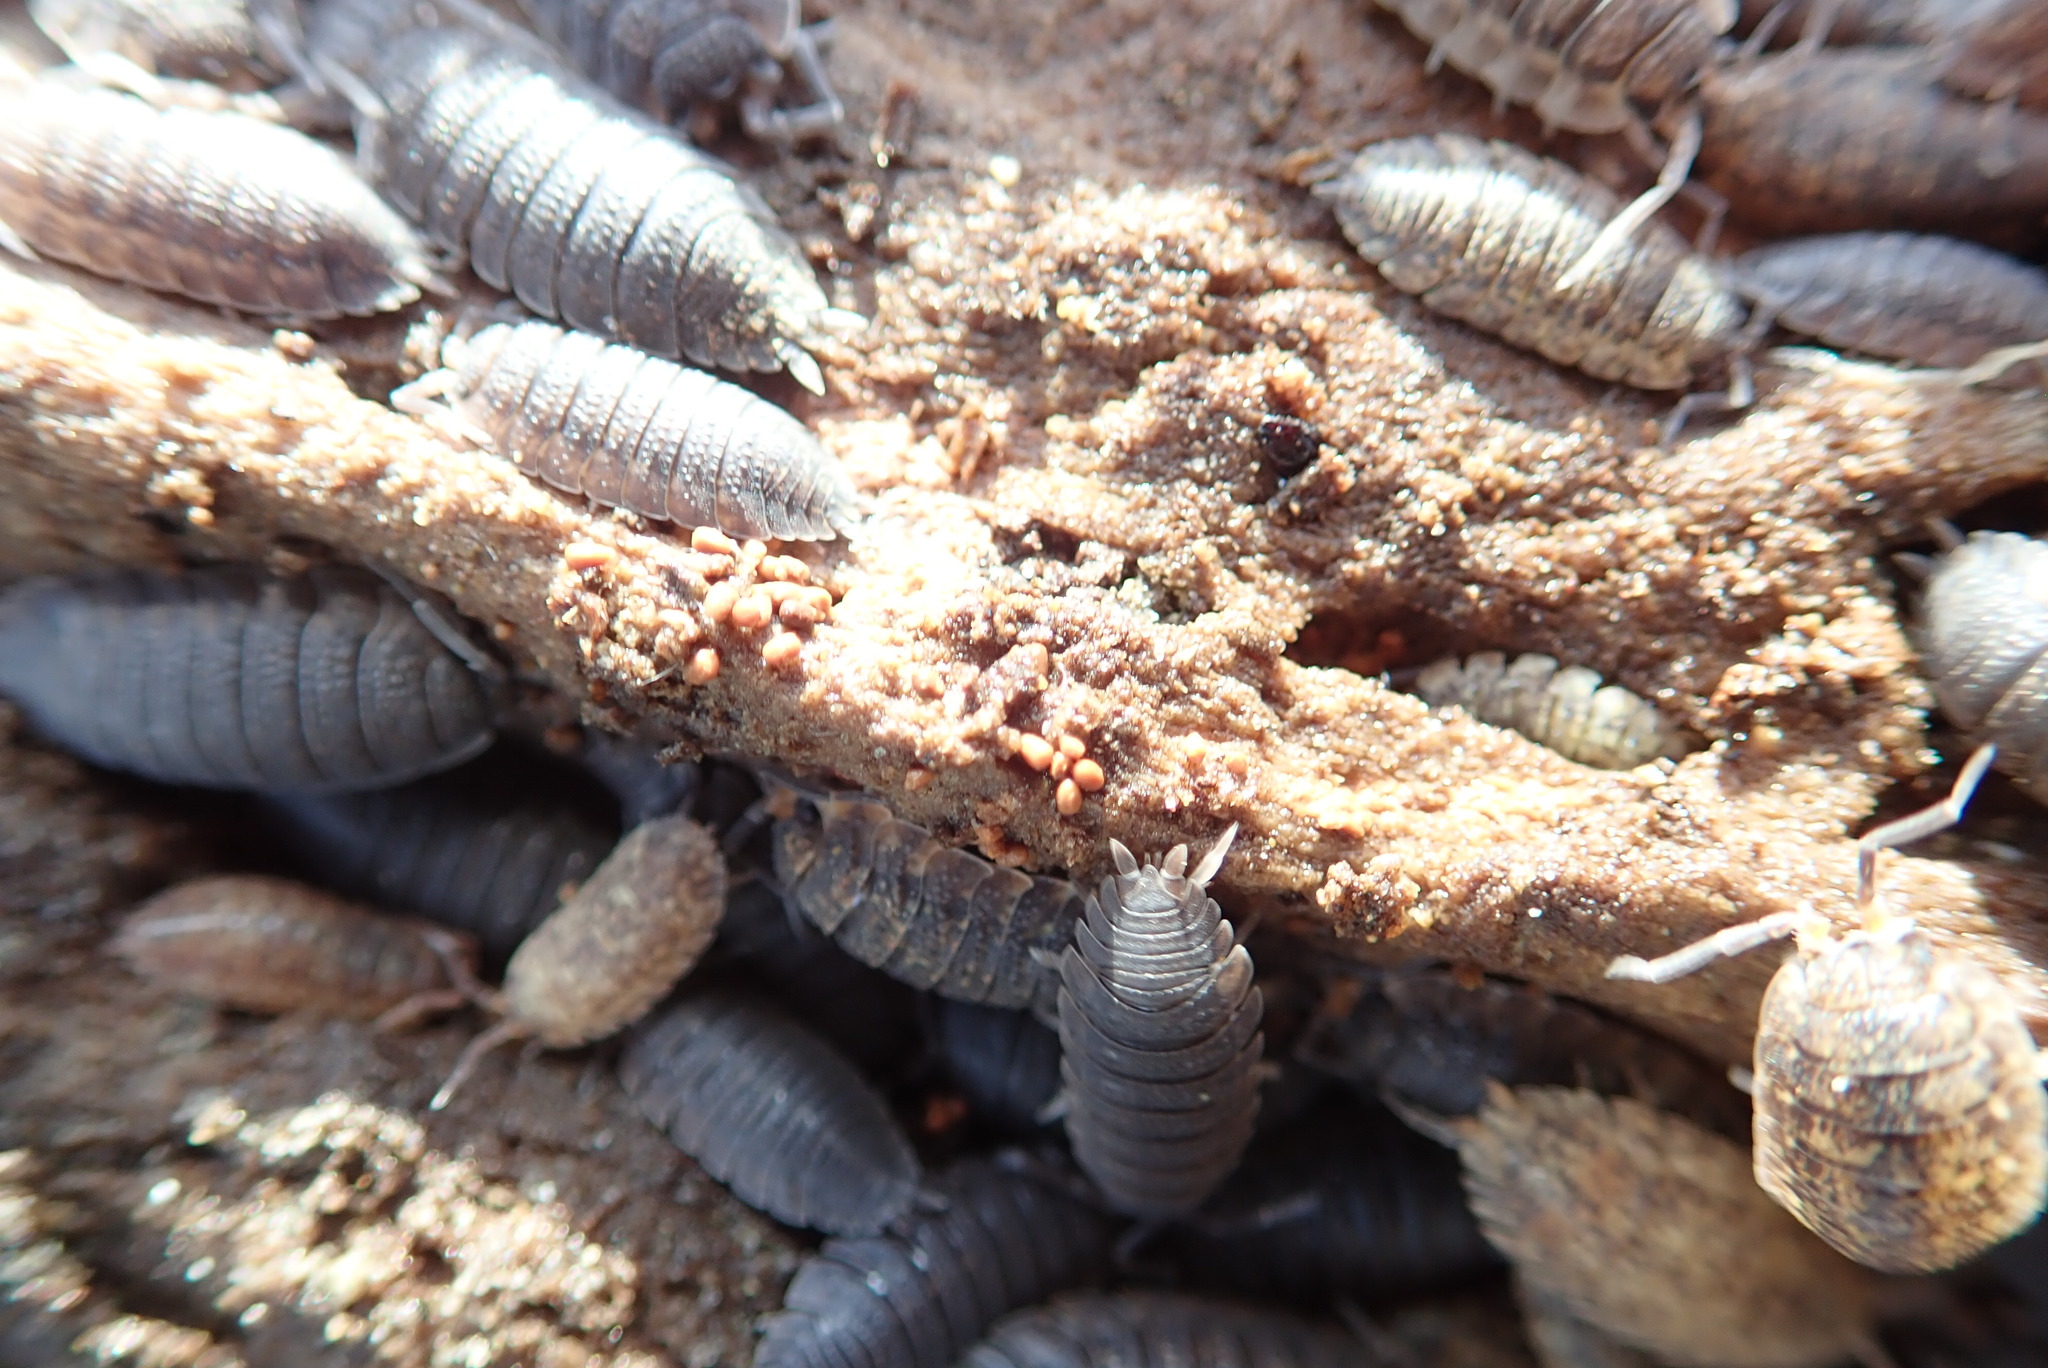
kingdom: Animalia
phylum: Arthropoda
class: Malacostraca
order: Isopoda
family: Porcellionidae
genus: Porcellio
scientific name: Porcellio scaber
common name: Common rough woodlouse
